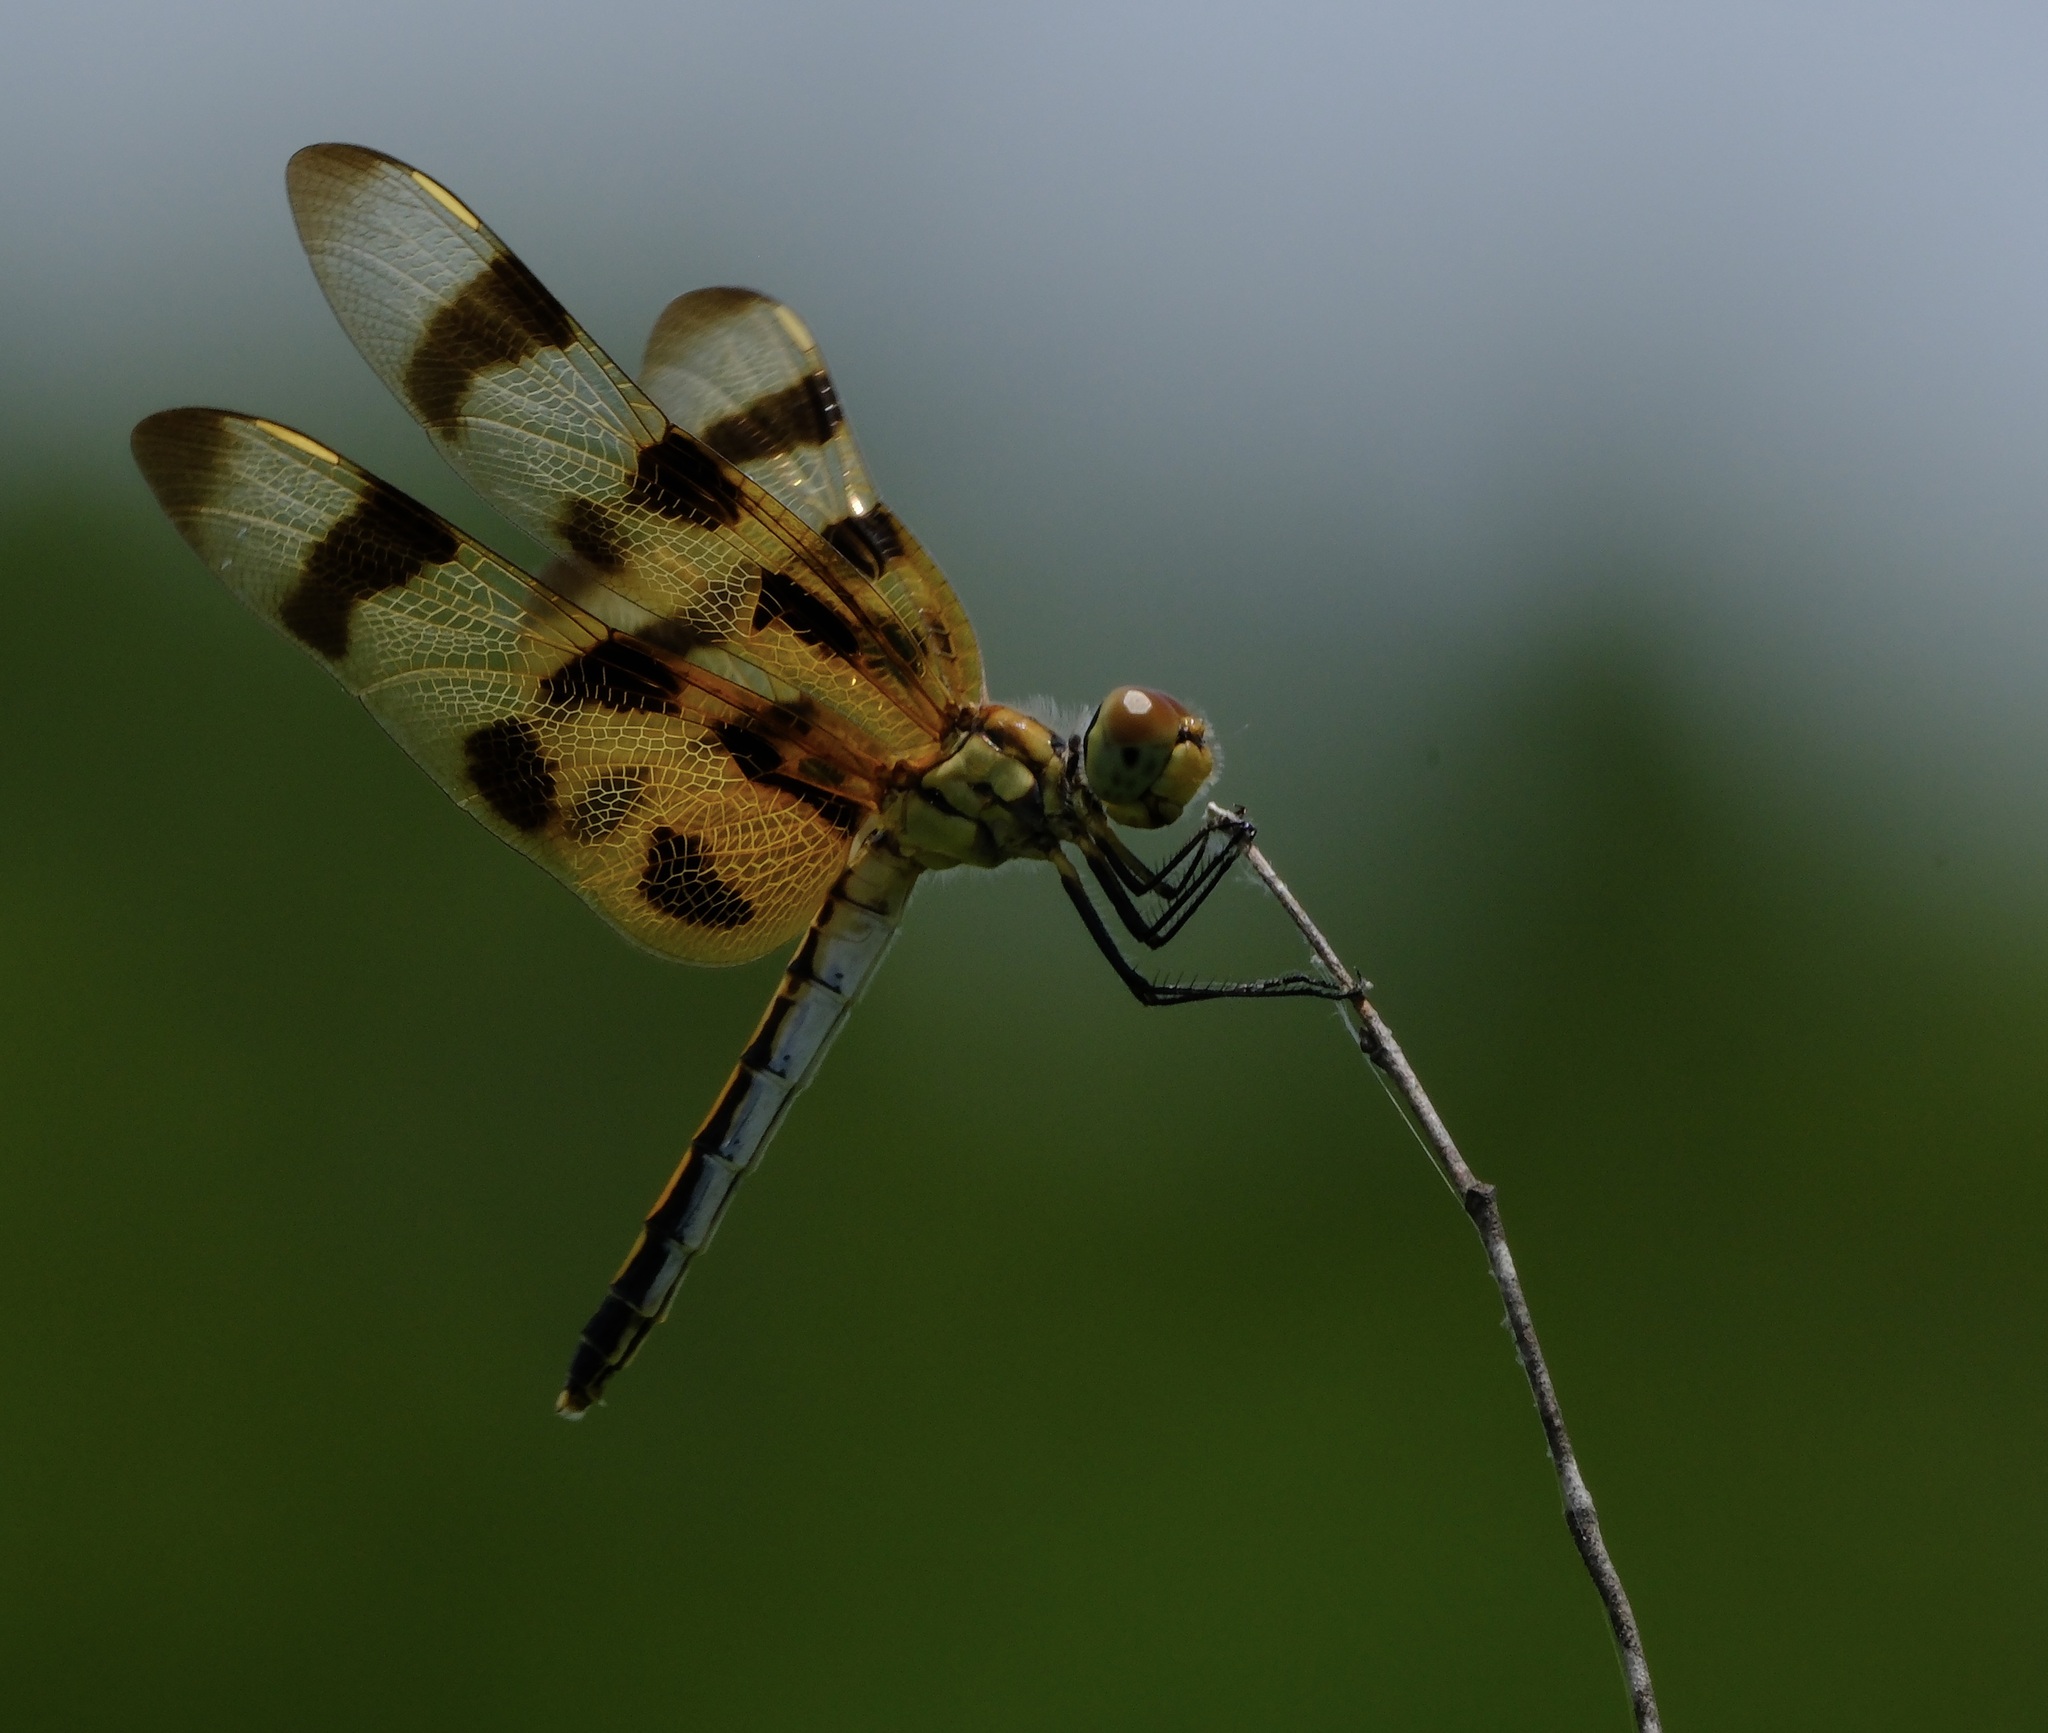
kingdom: Animalia
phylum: Arthropoda
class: Insecta
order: Odonata
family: Libellulidae
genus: Celithemis
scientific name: Celithemis eponina
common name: Halloween pennant
